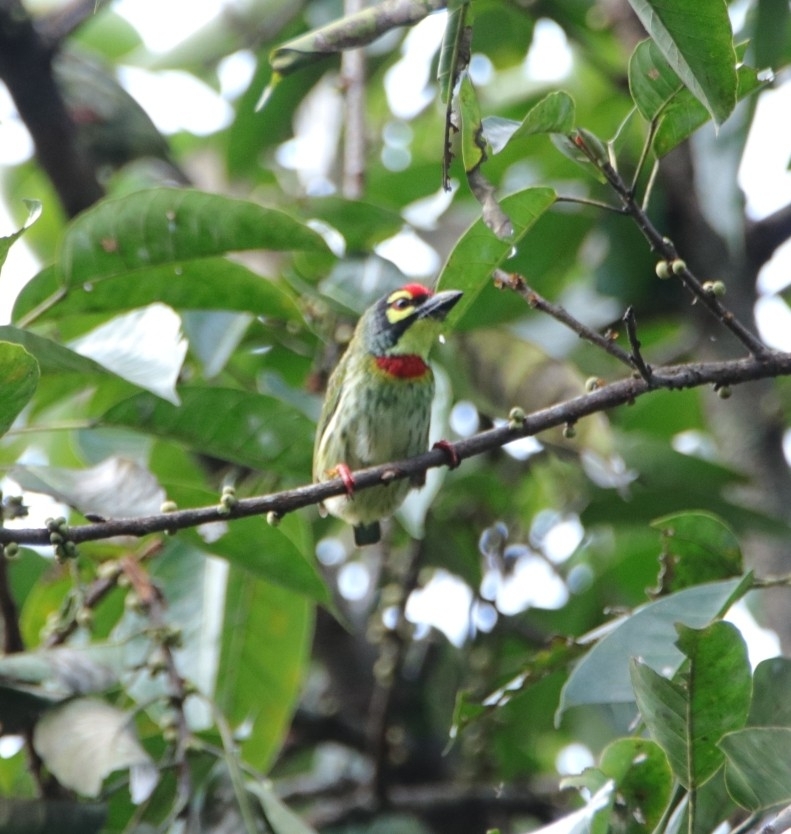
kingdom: Animalia
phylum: Chordata
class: Aves
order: Piciformes
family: Megalaimidae
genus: Psilopogon
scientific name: Psilopogon haemacephalus
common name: Coppersmith barbet
